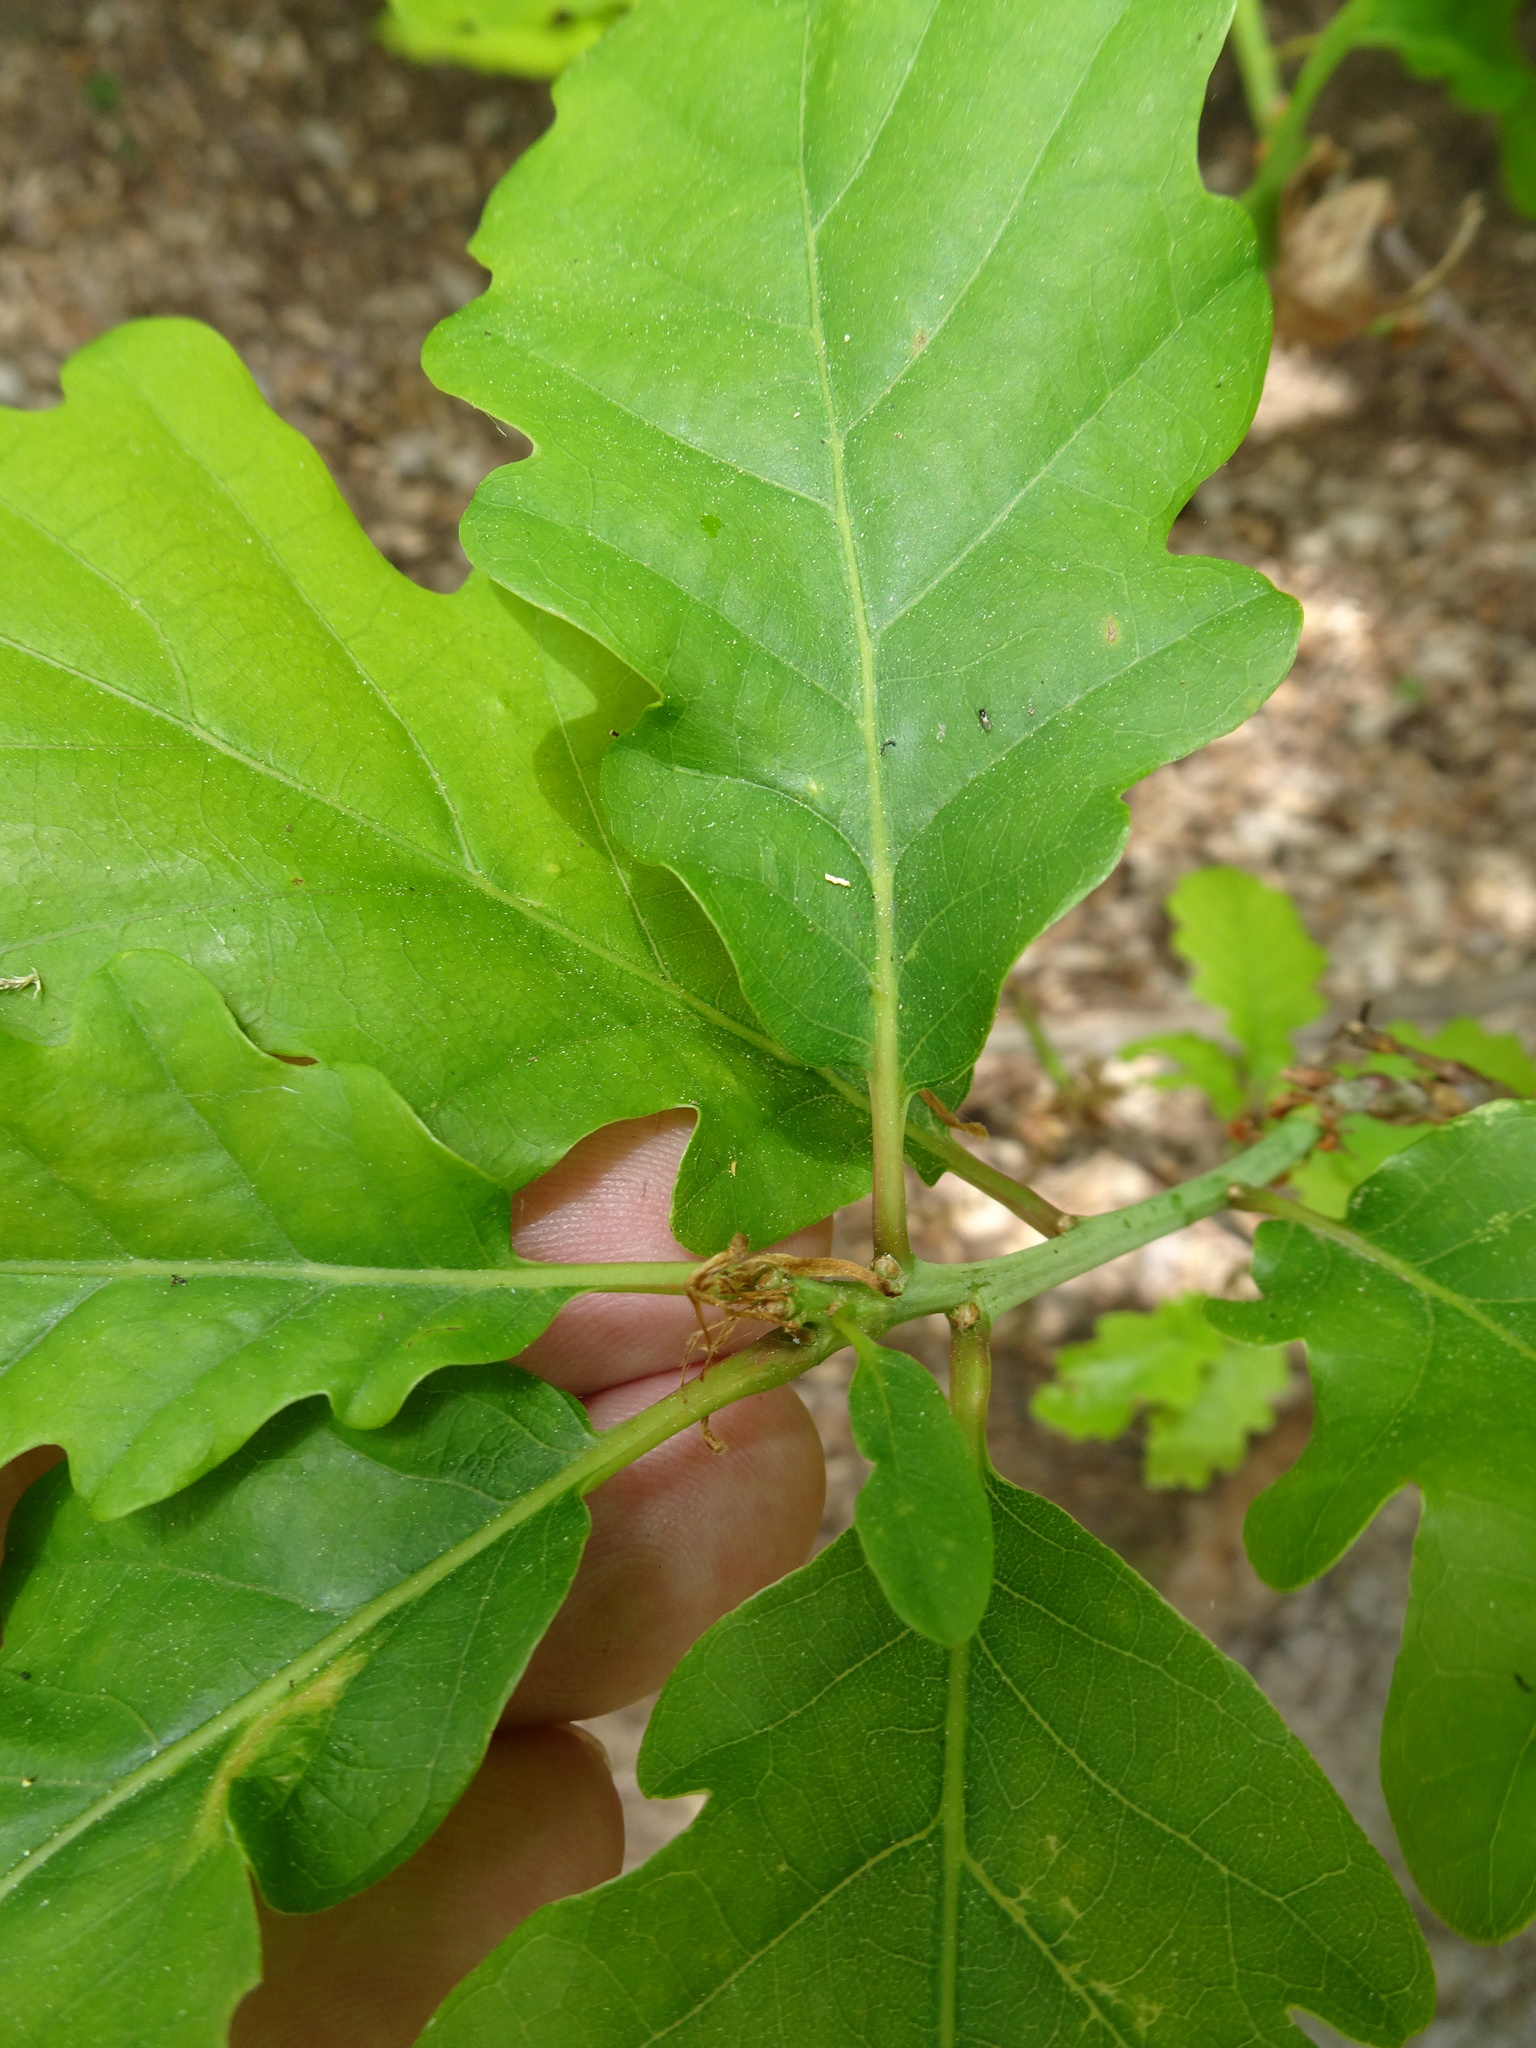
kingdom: Plantae
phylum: Tracheophyta
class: Magnoliopsida
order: Fagales
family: Fagaceae
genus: Quercus
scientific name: Quercus petraea
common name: Sessile oak
